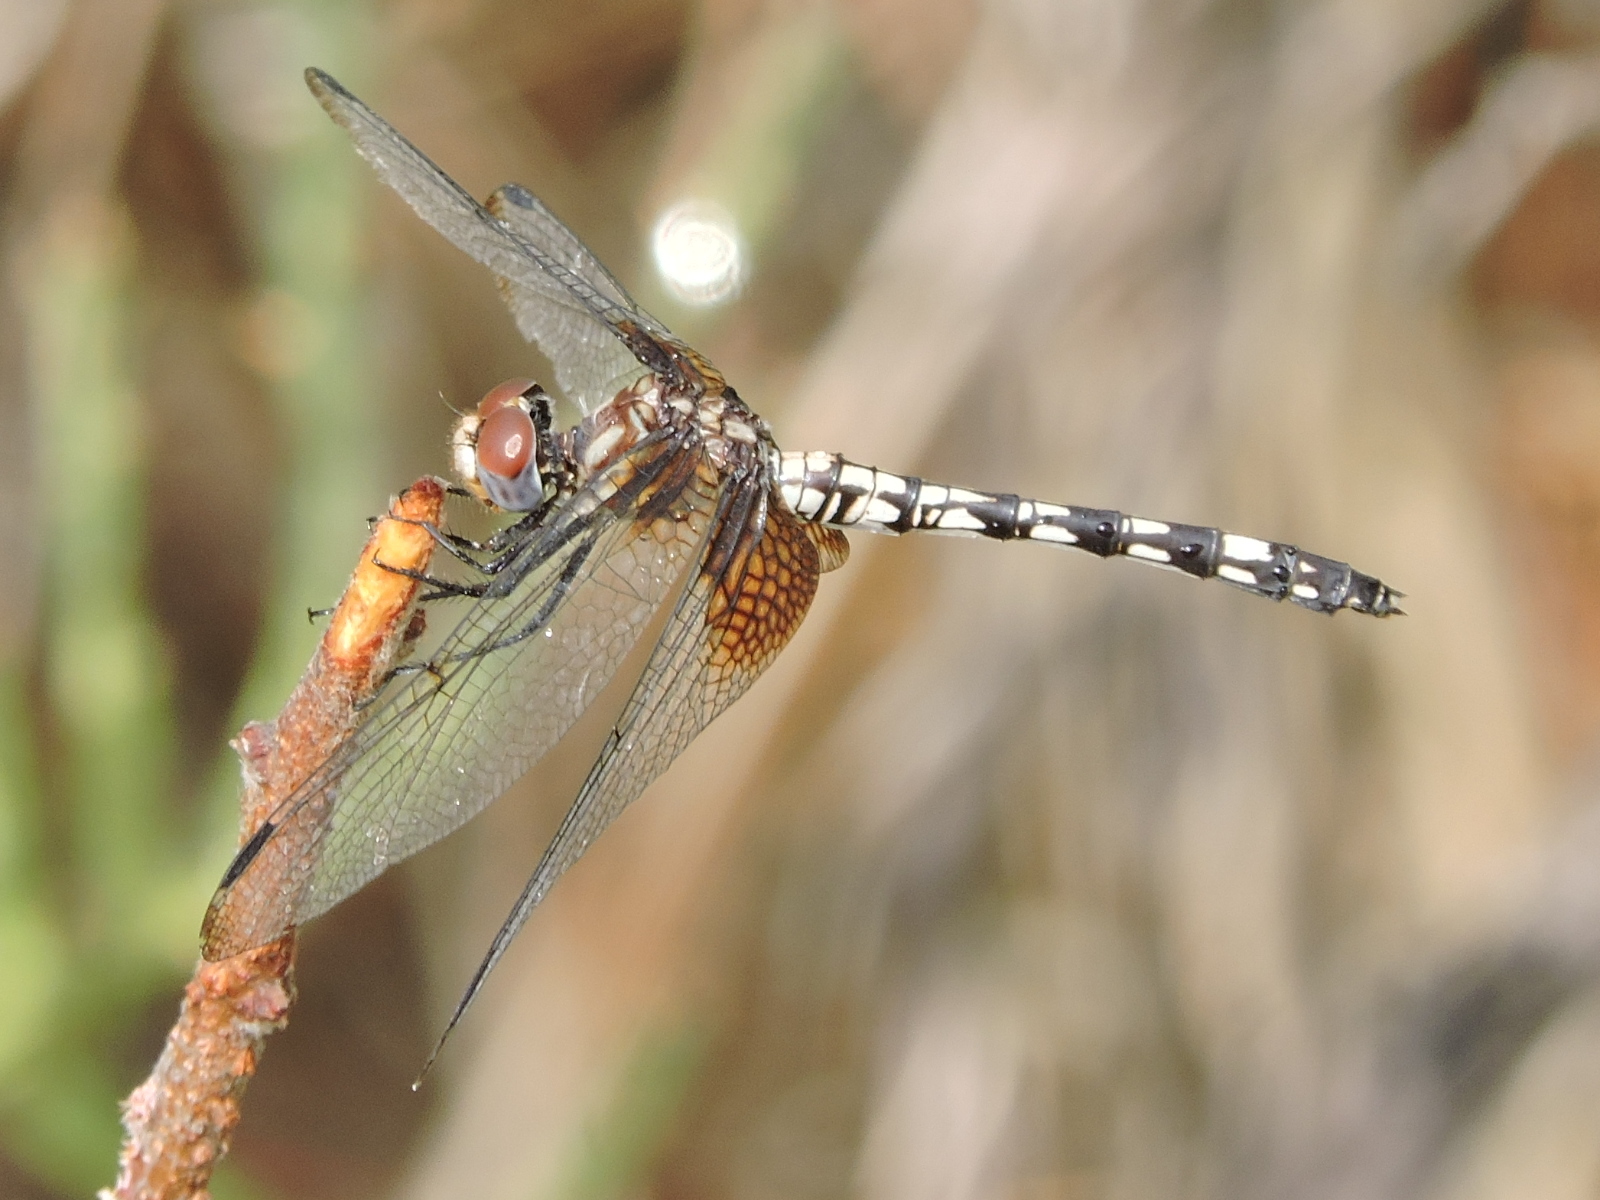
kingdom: Animalia
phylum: Arthropoda
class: Insecta
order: Odonata
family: Libellulidae
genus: Dythemis
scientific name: Dythemis fugax
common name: Checkered setwing
